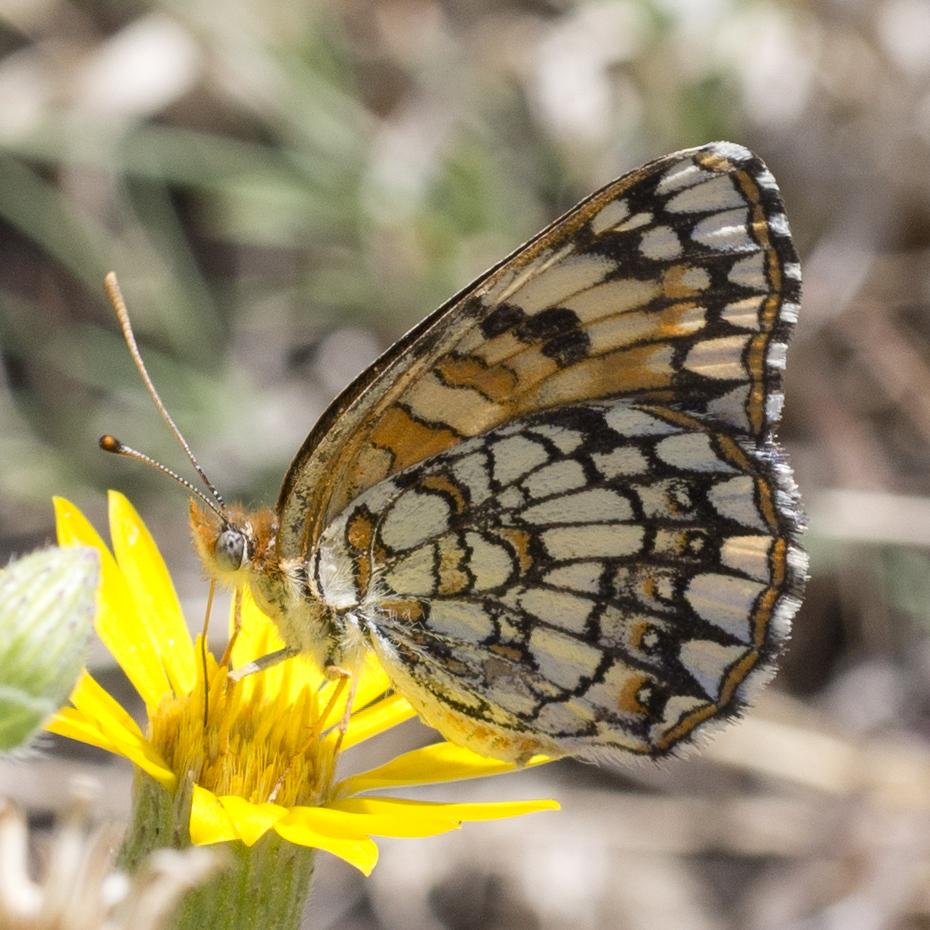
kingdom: Animalia
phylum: Arthropoda
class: Insecta
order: Lepidoptera
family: Nymphalidae
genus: Chlosyne
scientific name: Chlosyne acastus
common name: Sagebrush checkerspot
